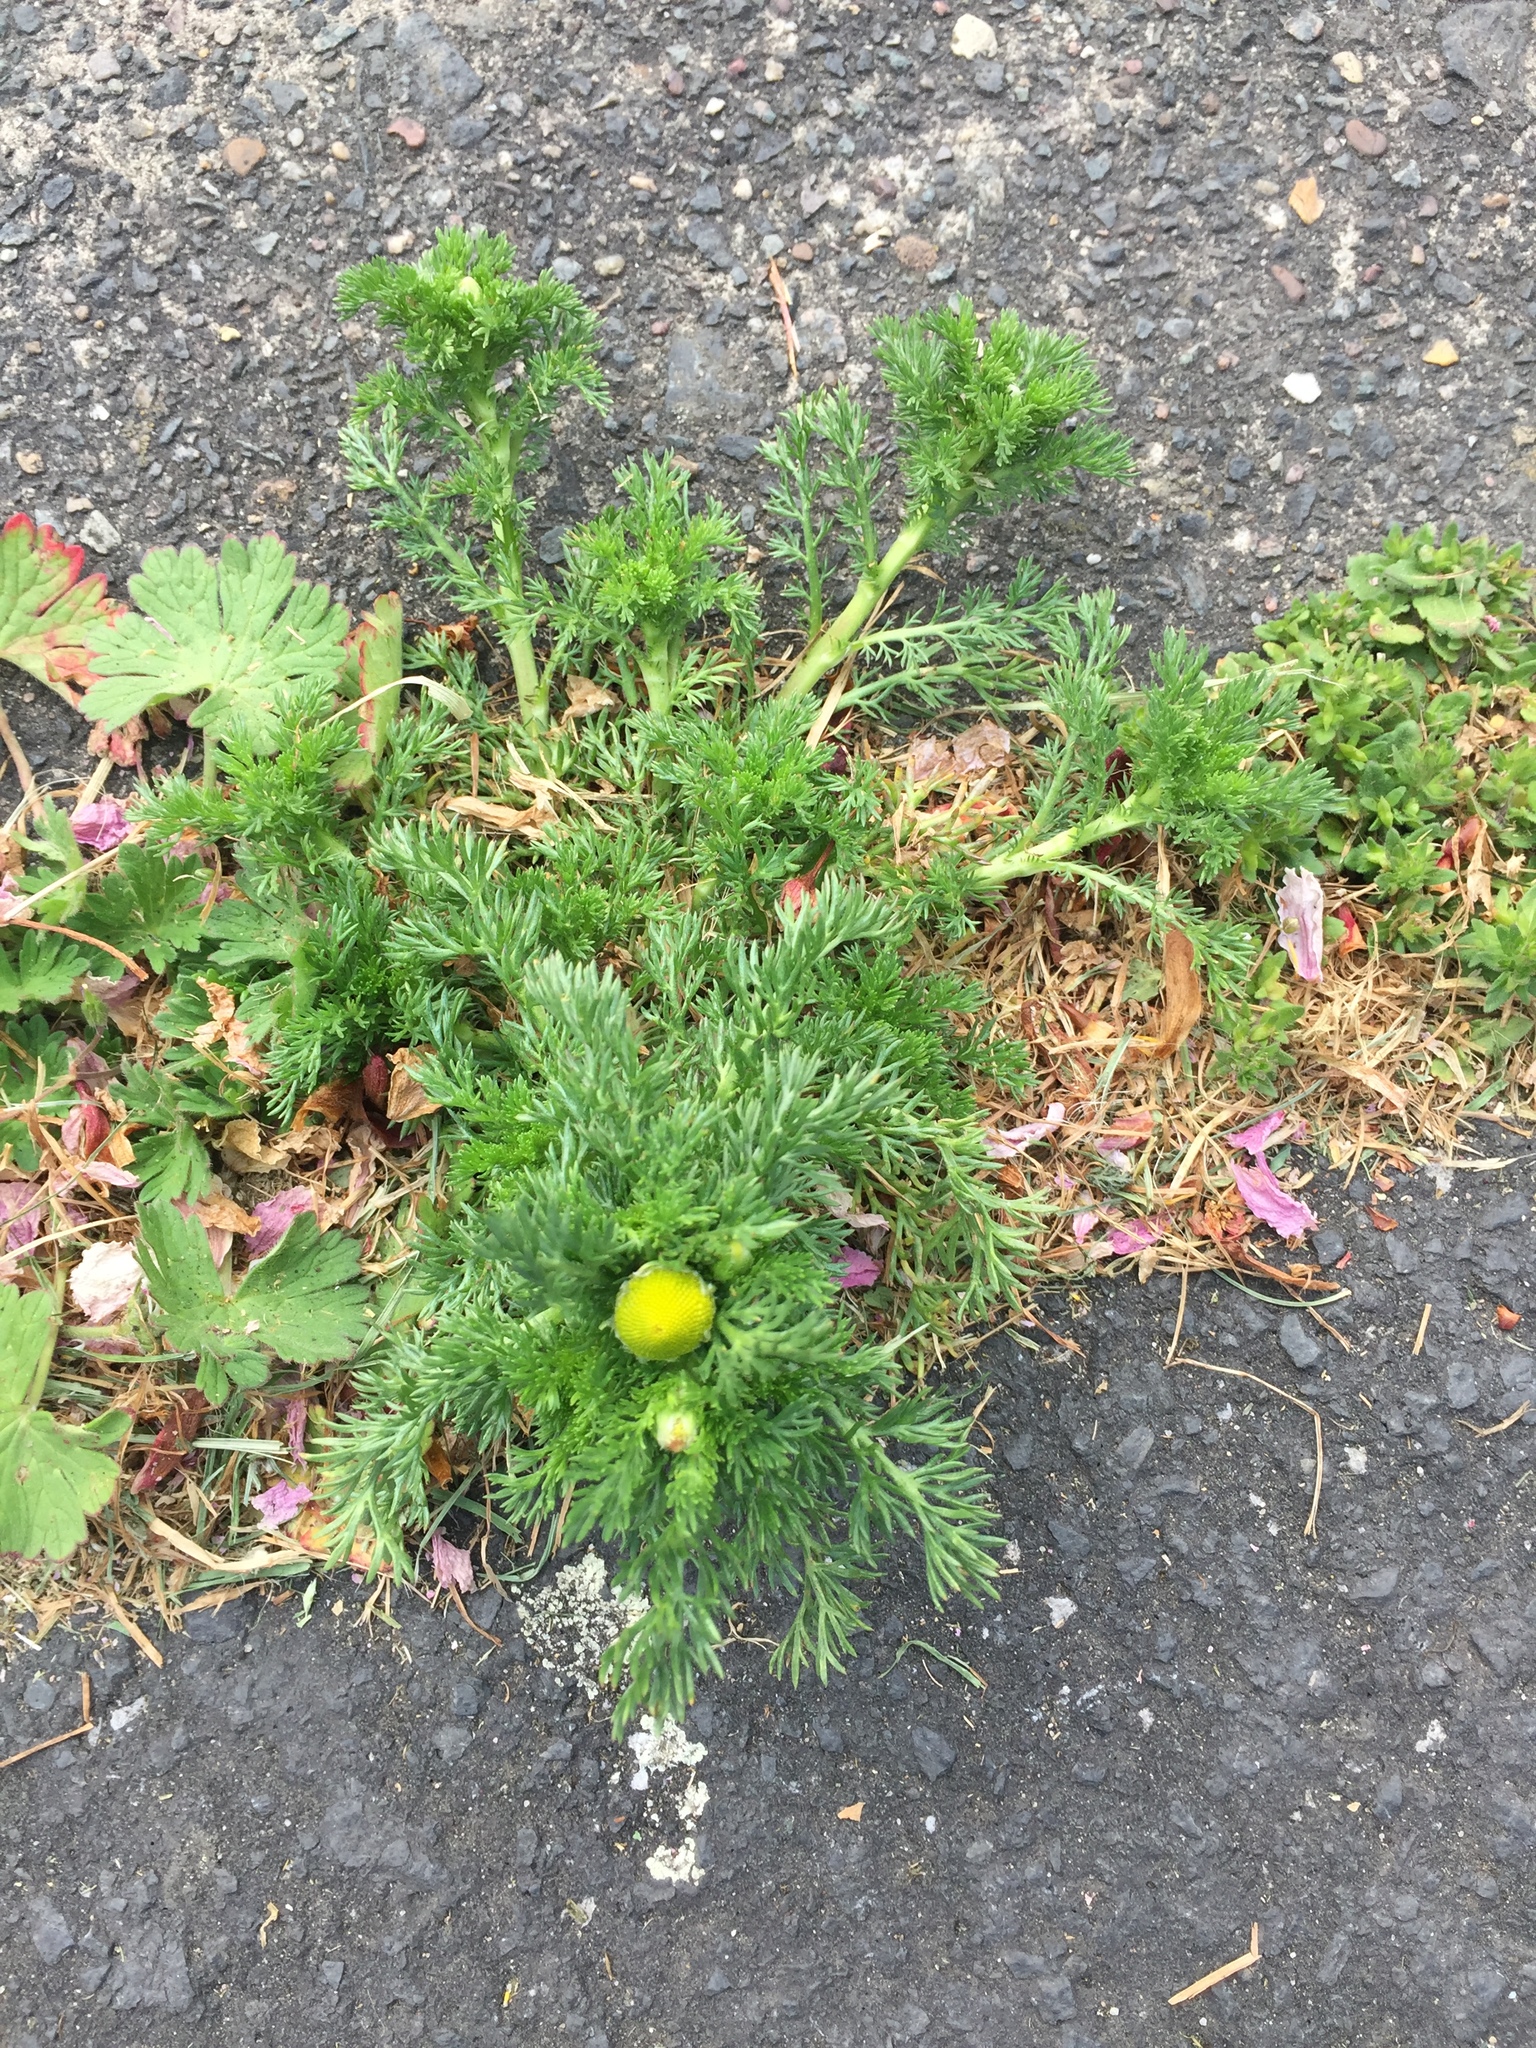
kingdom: Plantae
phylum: Tracheophyta
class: Magnoliopsida
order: Asterales
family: Asteraceae
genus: Matricaria
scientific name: Matricaria discoidea
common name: Disc mayweed
